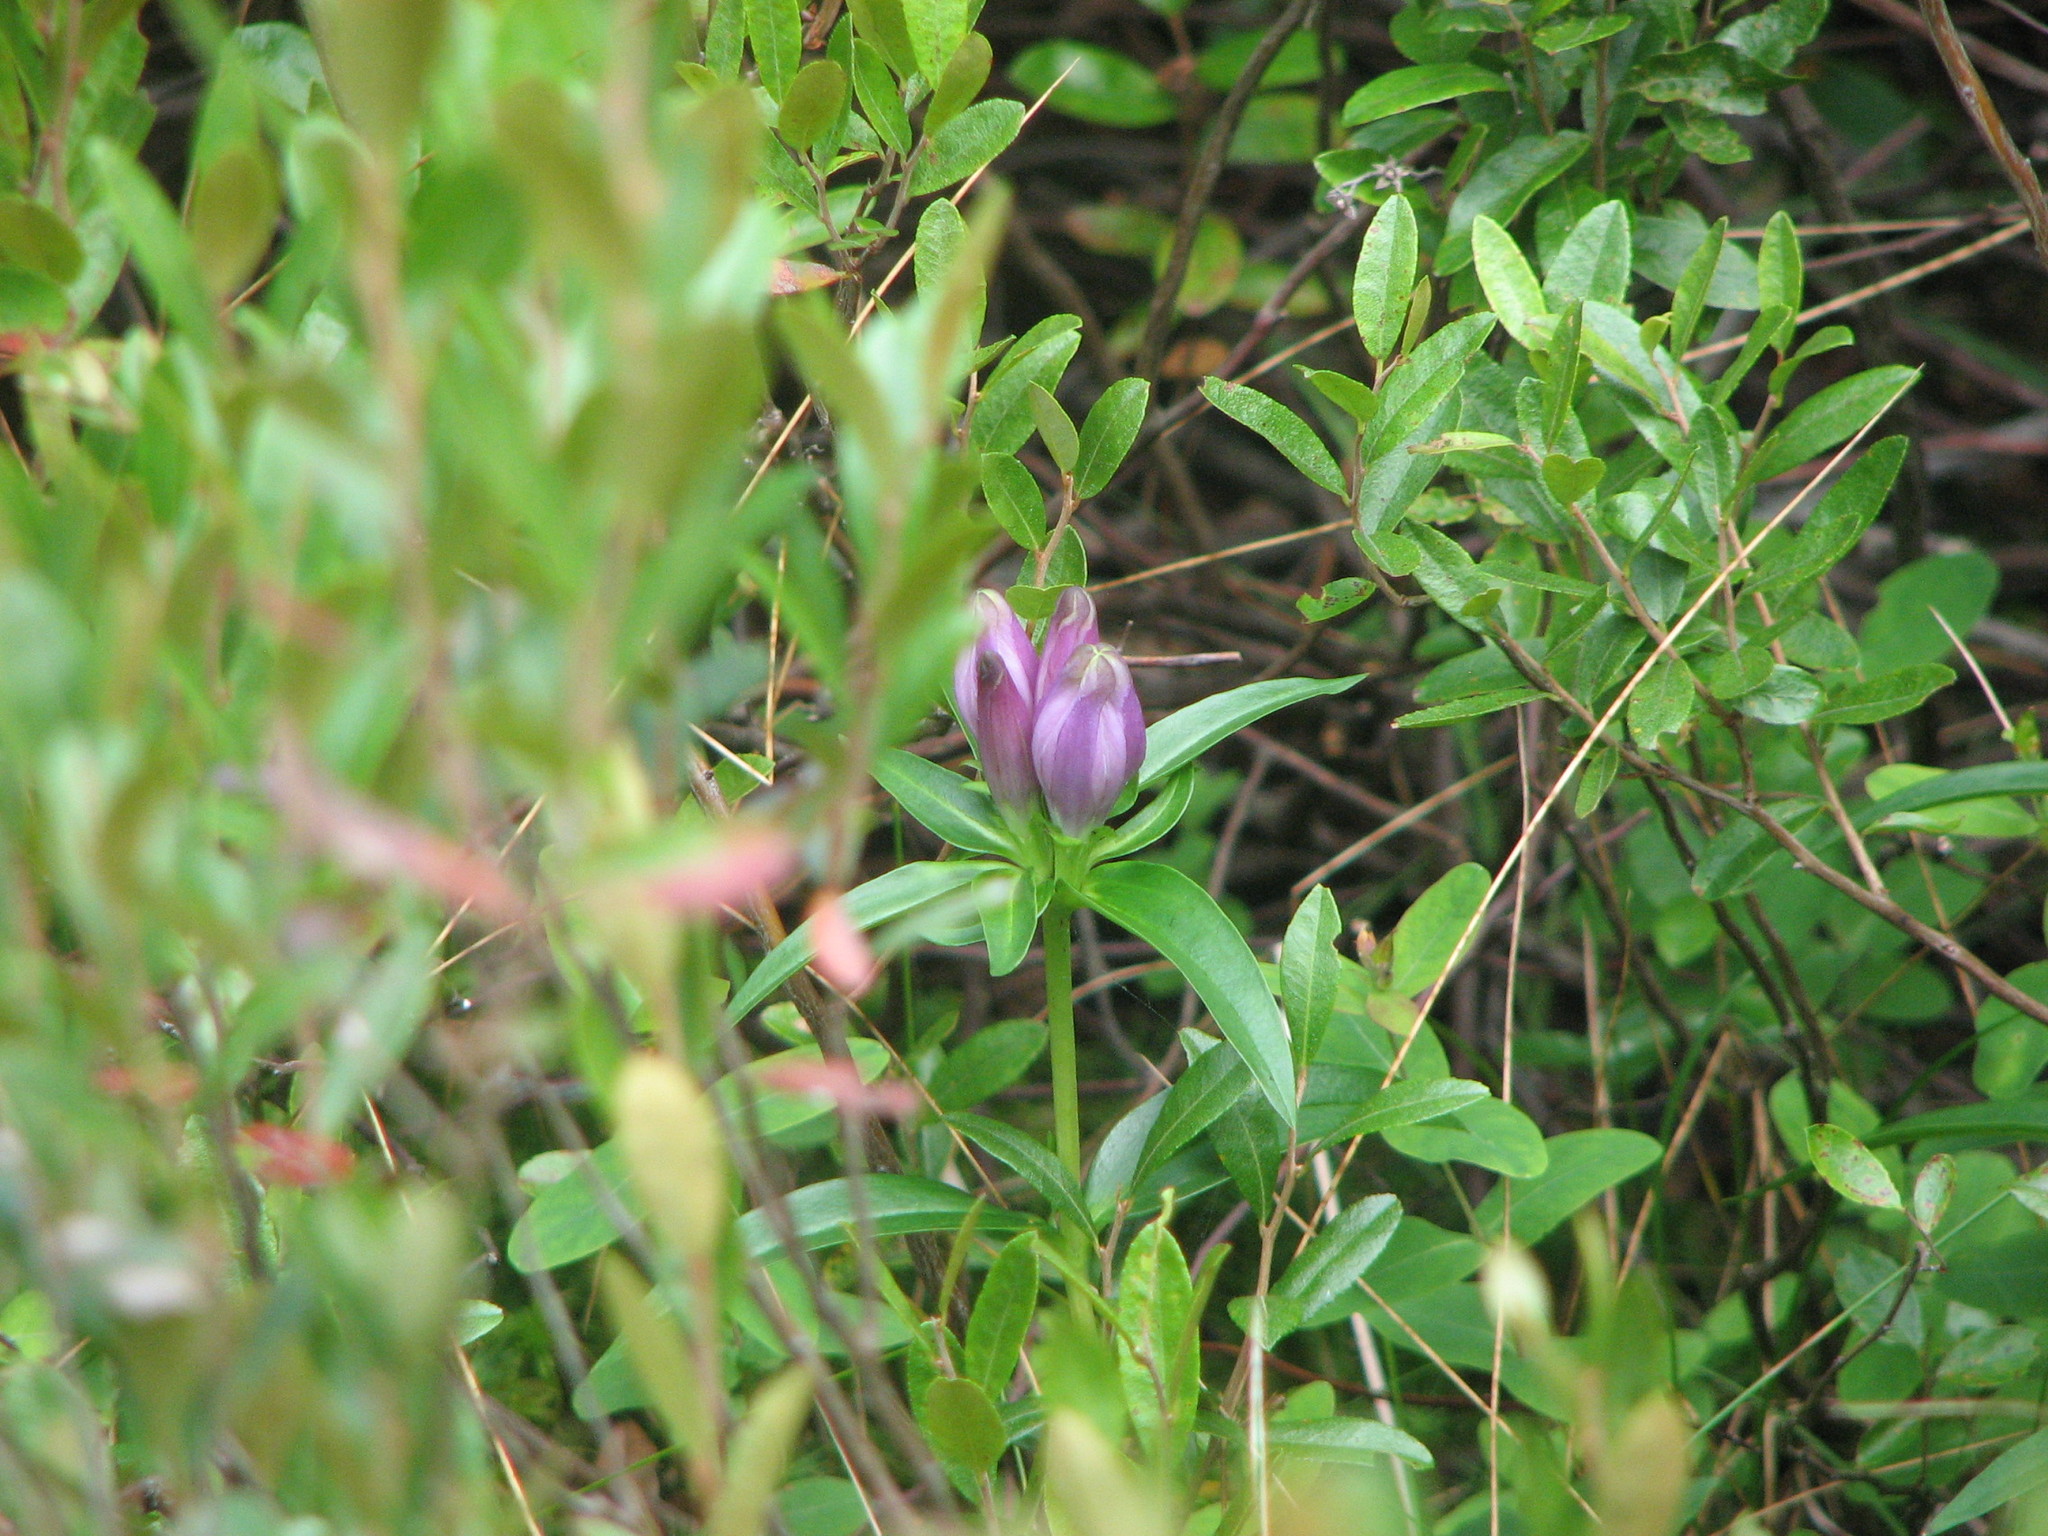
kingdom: Plantae
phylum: Tracheophyta
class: Magnoliopsida
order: Gentianales
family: Gentianaceae
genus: Gentiana
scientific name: Gentiana linearis
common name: Bastard gentian
